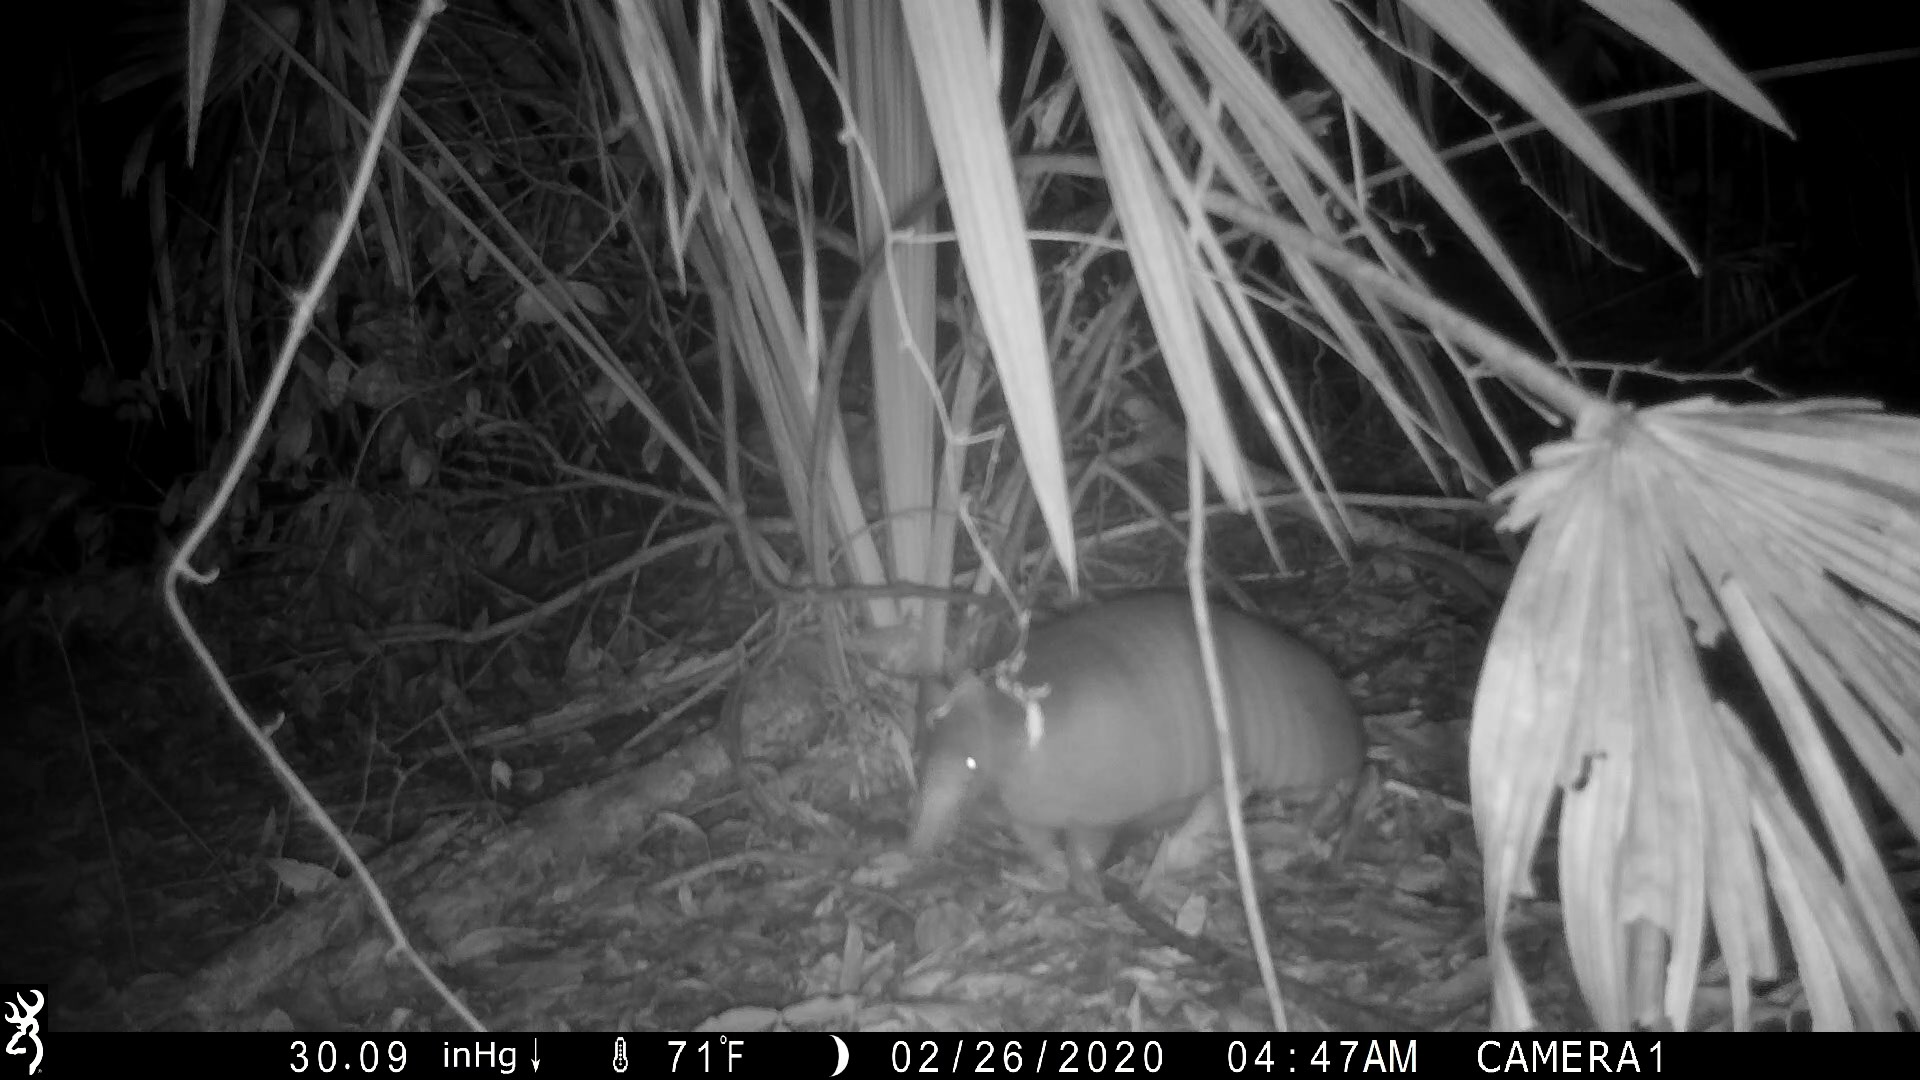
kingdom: Animalia
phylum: Chordata
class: Mammalia
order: Cingulata
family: Dasypodidae
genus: Dasypus
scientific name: Dasypus novemcinctus
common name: Nine-banded armadillo
